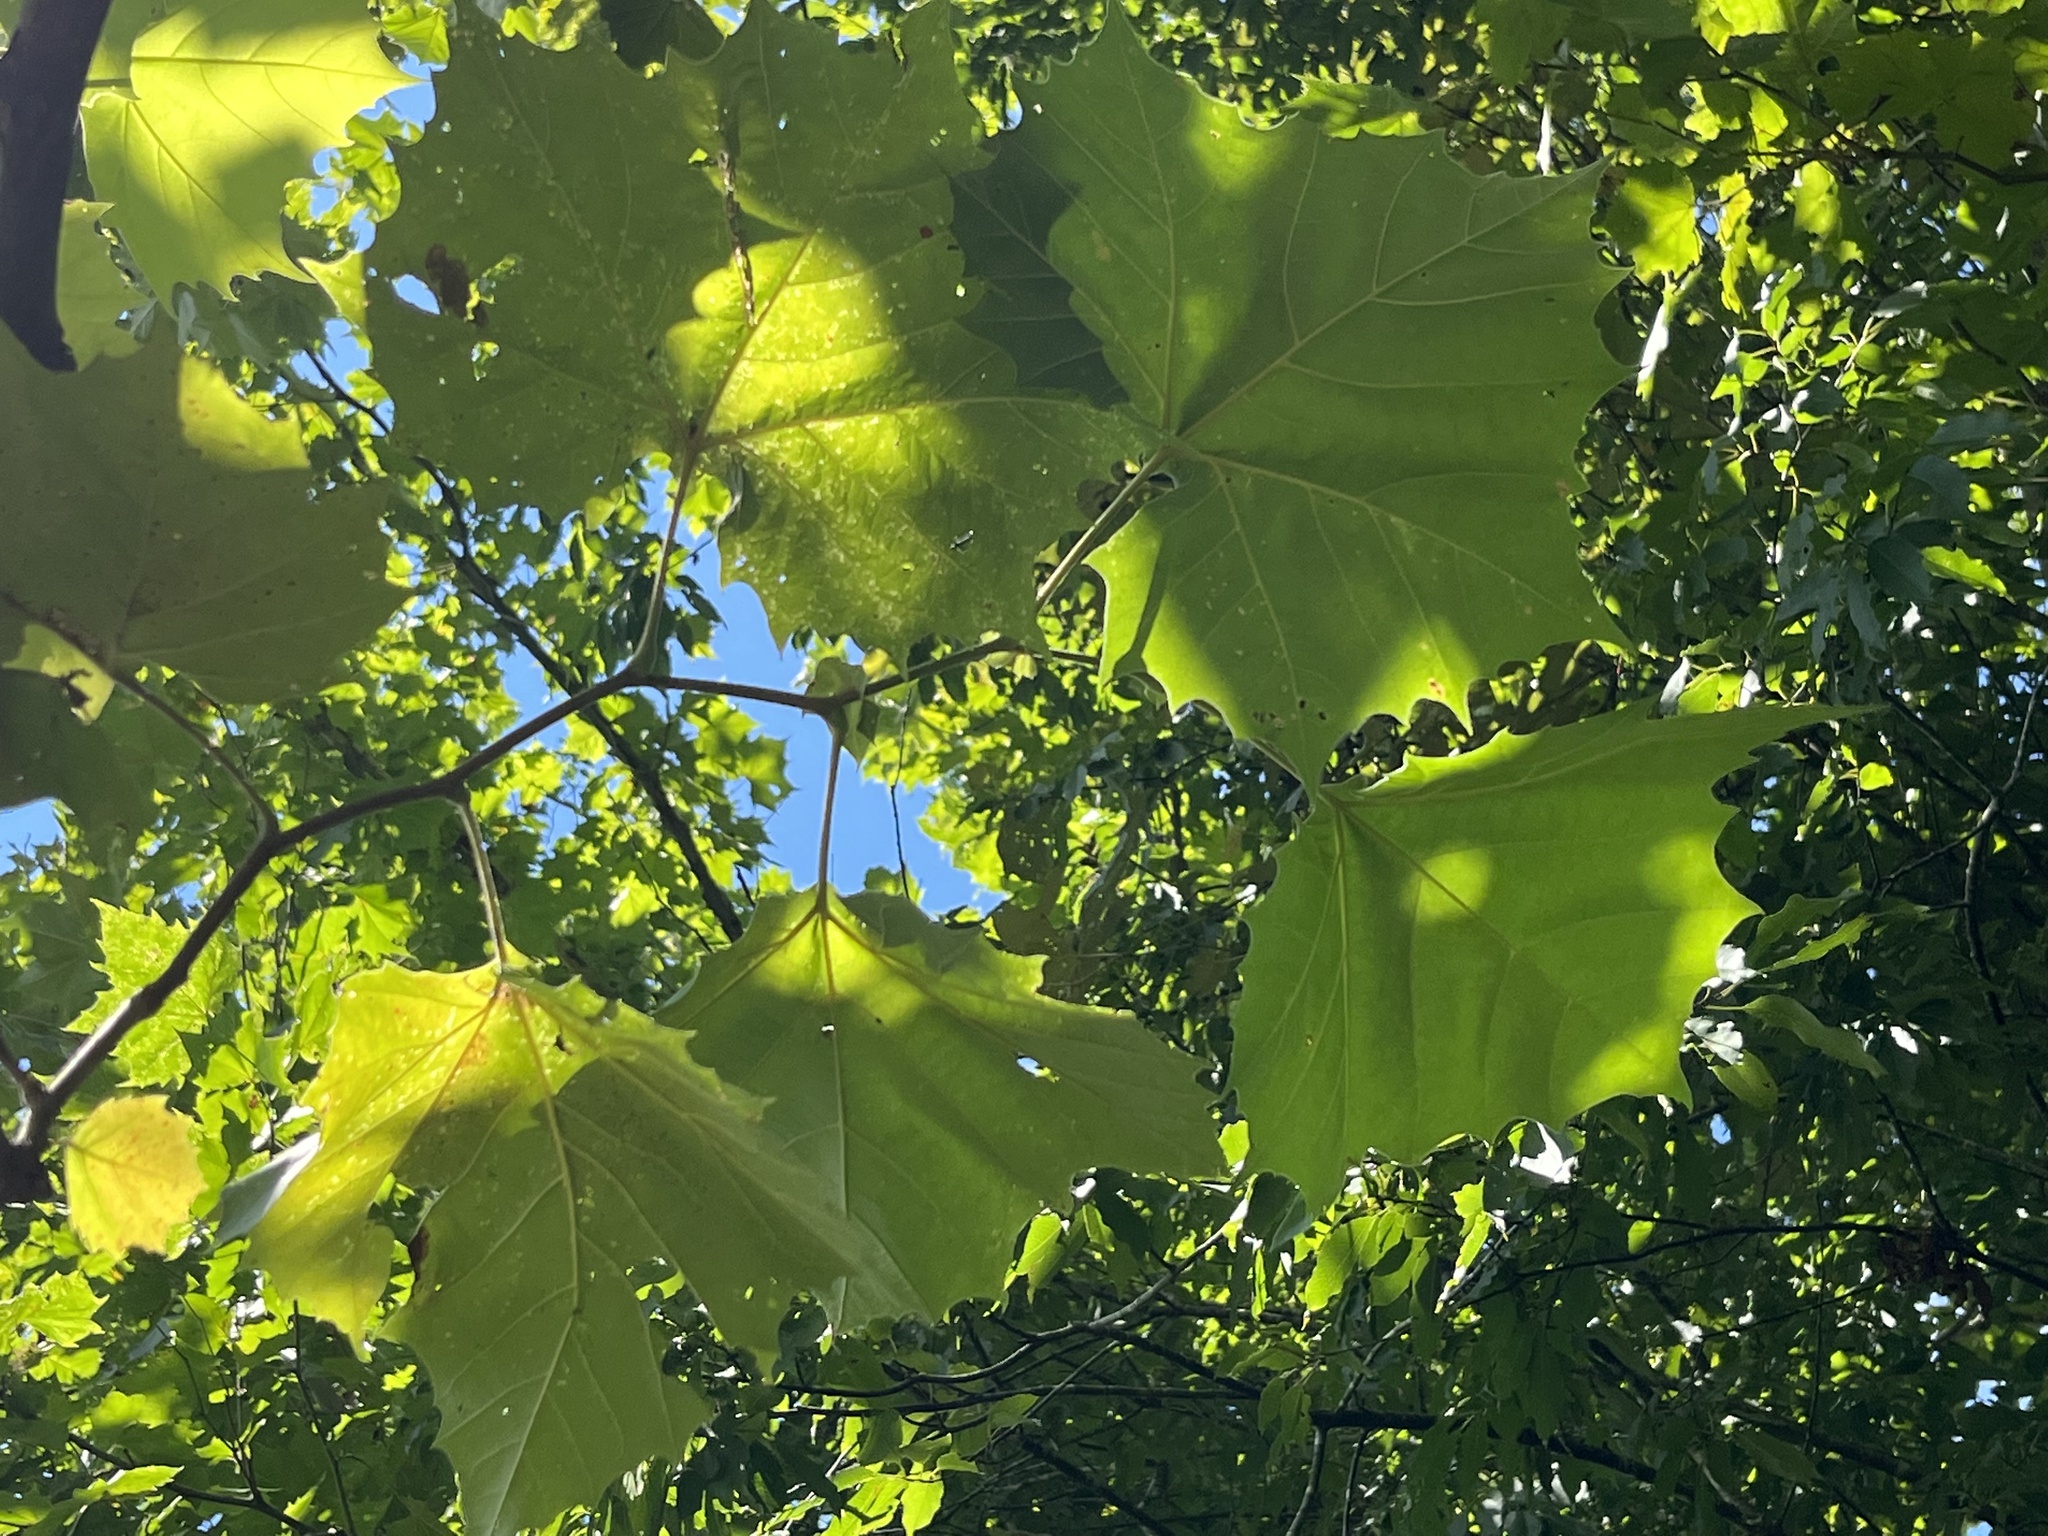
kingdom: Plantae
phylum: Tracheophyta
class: Magnoliopsida
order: Proteales
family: Platanaceae
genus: Platanus
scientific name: Platanus occidentalis
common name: American sycamore
